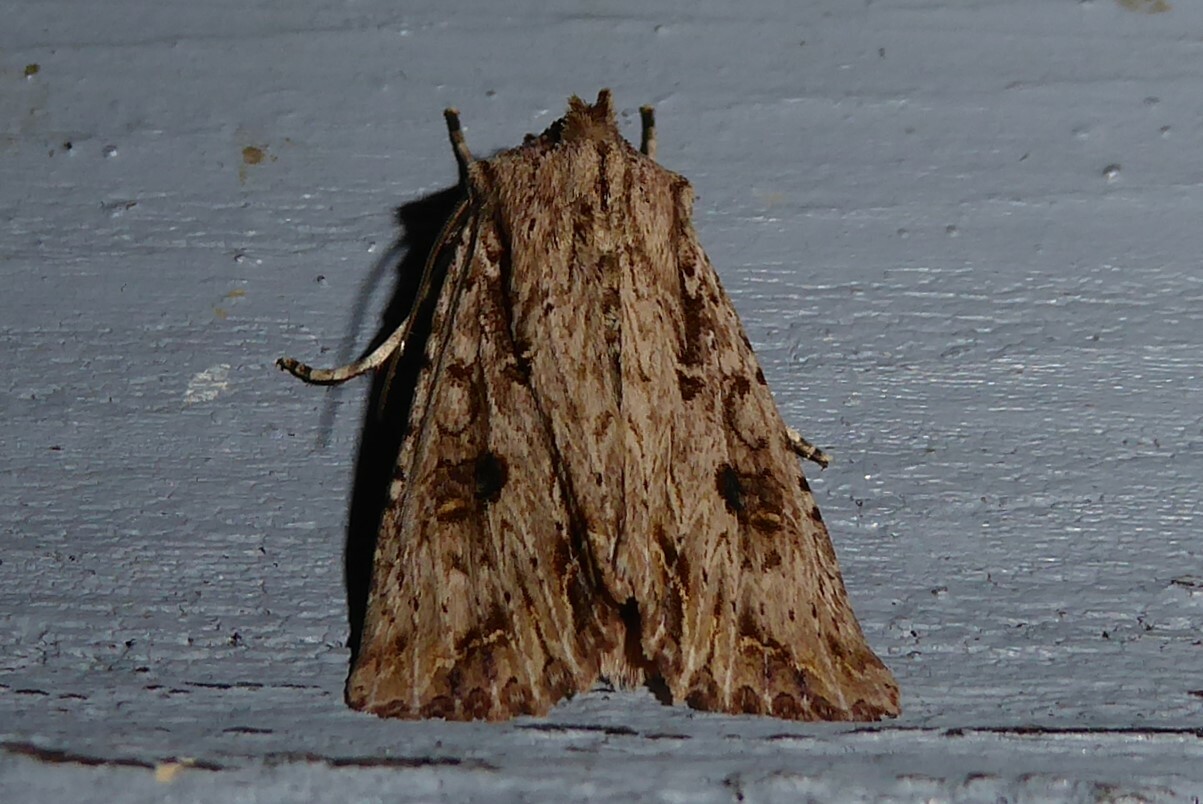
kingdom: Animalia
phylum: Arthropoda
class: Insecta
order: Lepidoptera
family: Noctuidae
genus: Ichneutica
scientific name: Ichneutica lignana
